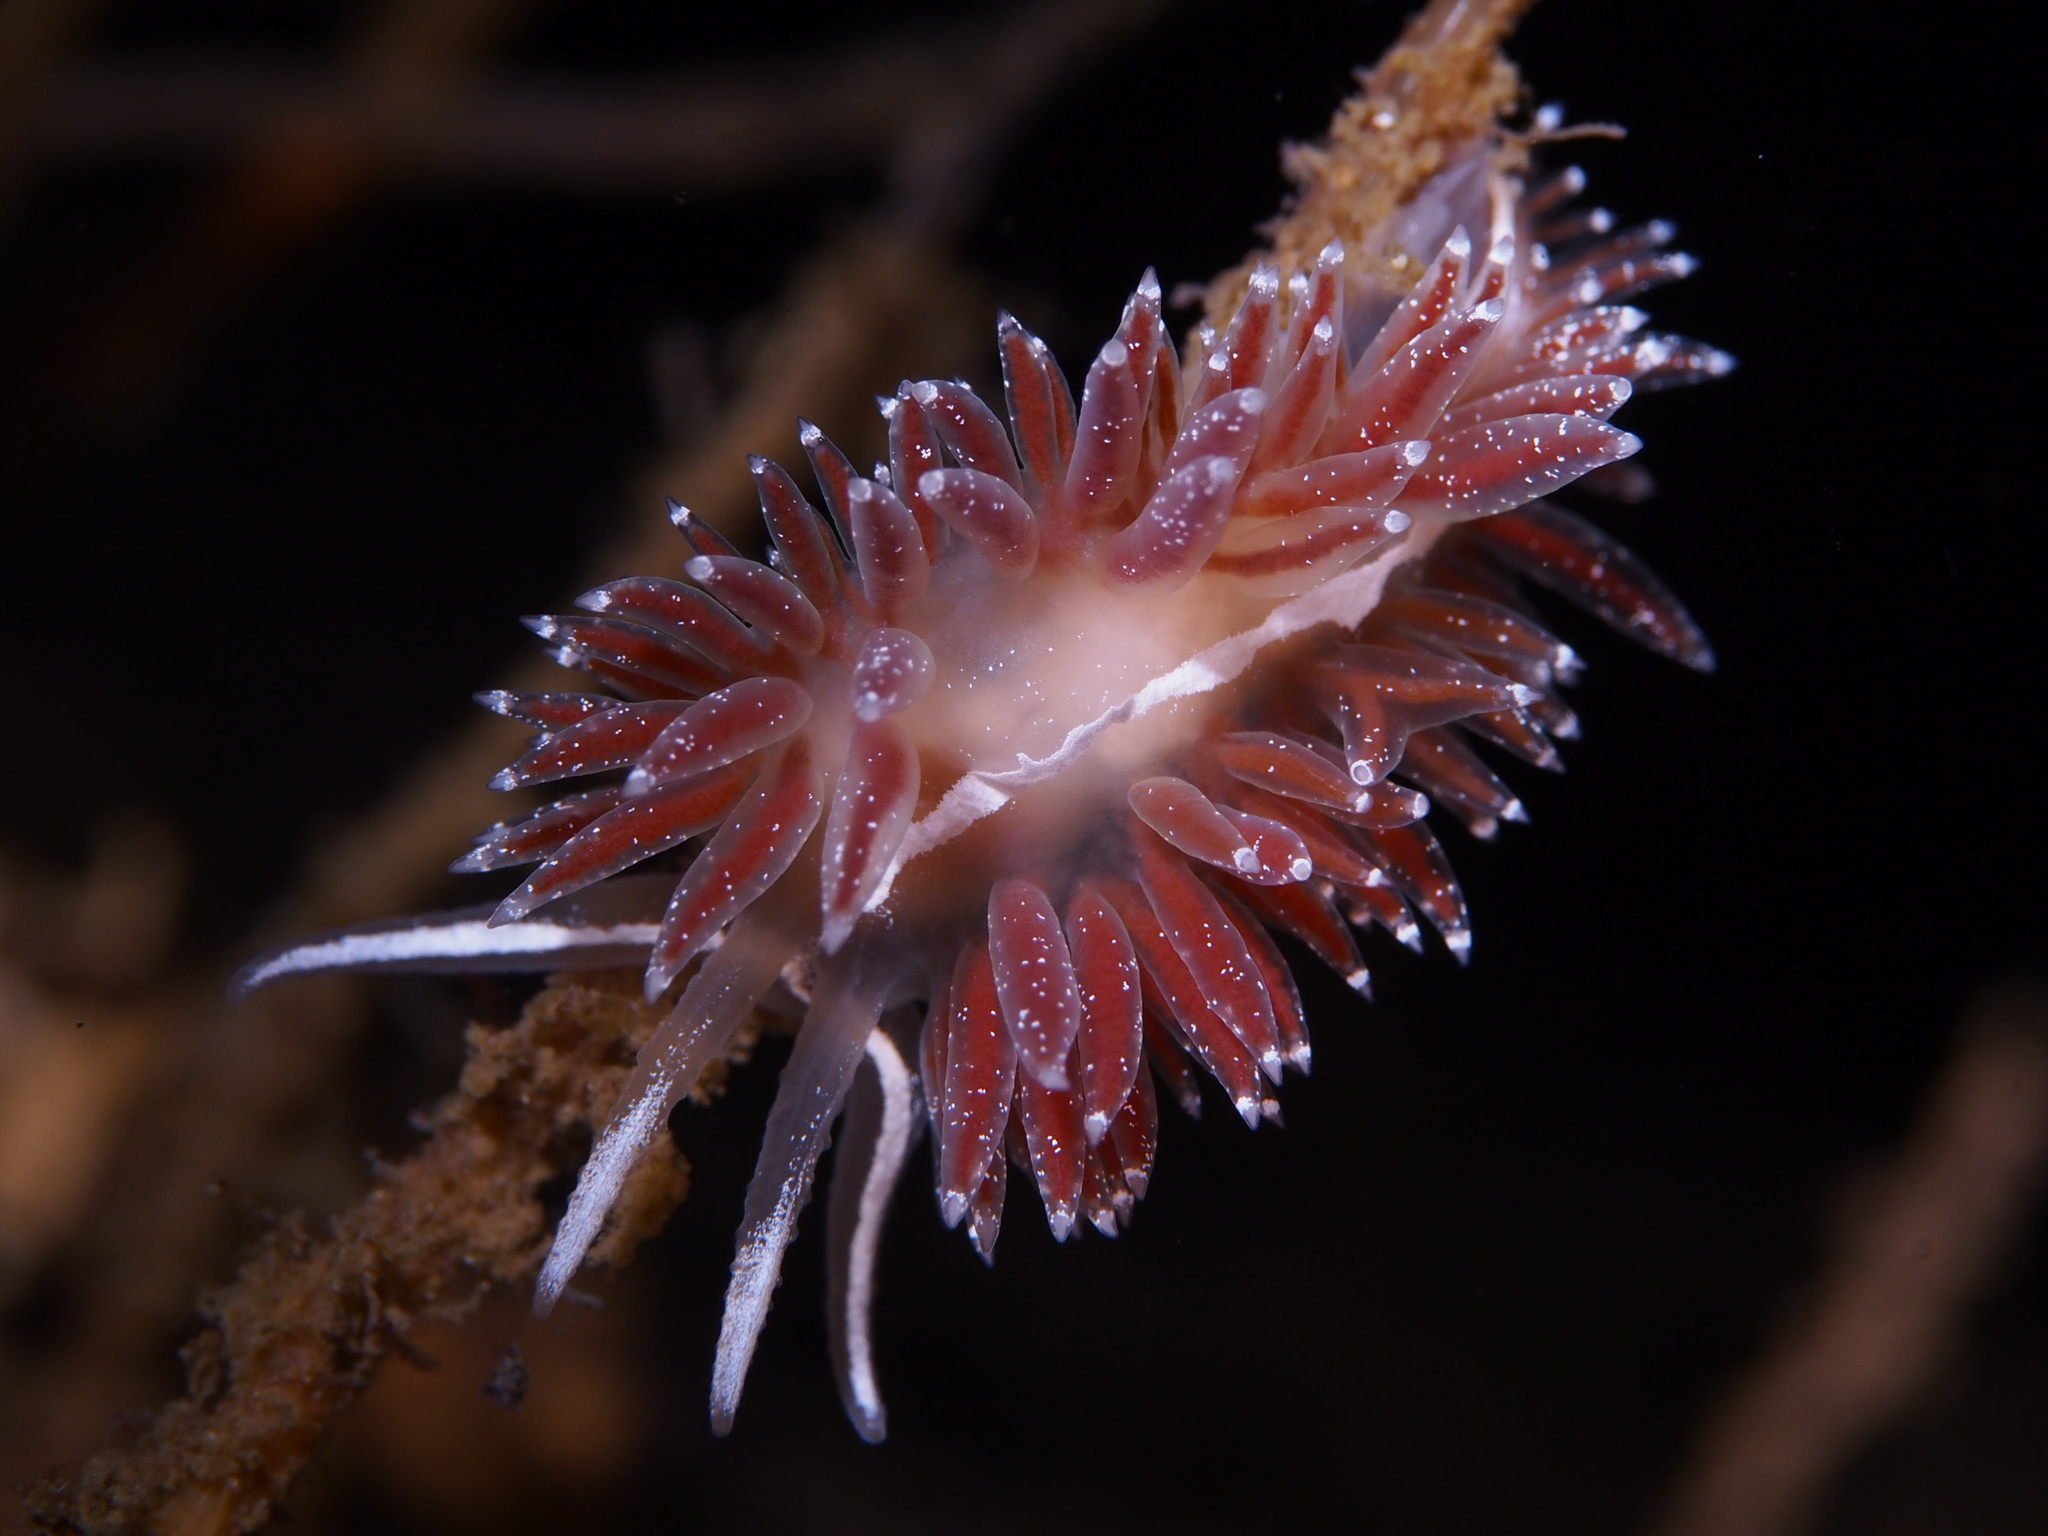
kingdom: Animalia
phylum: Mollusca
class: Gastropoda
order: Nudibranchia
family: Coryphellidae
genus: Coryphella
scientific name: Coryphella orjani
